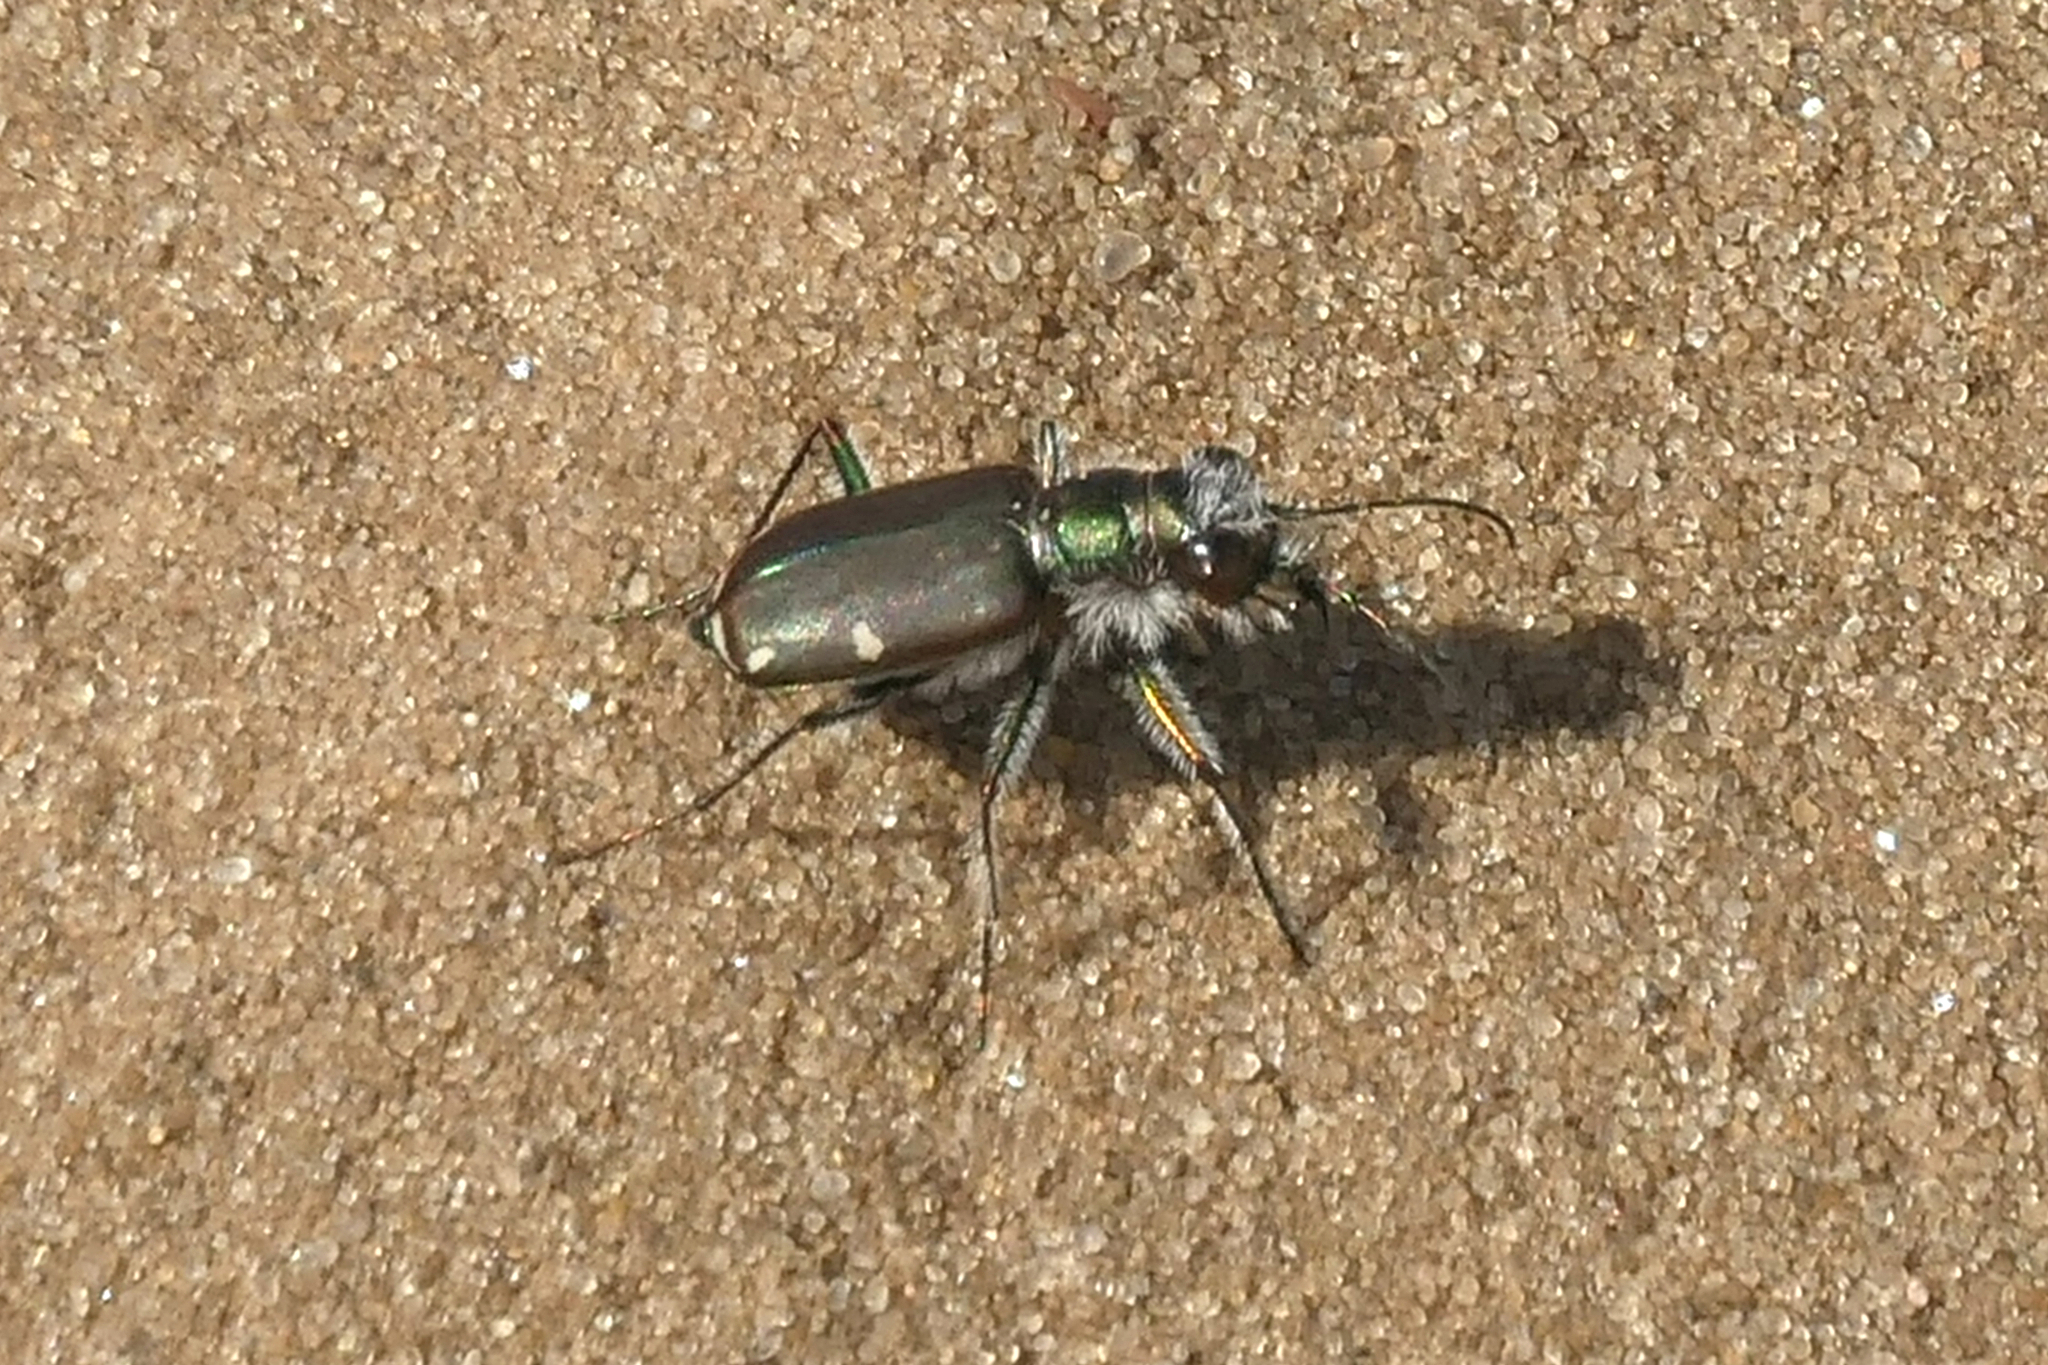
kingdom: Animalia
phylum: Arthropoda
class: Insecta
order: Coleoptera
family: Carabidae
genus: Cicindela
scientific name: Cicindela scutellaris
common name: Festive tiger beetle
